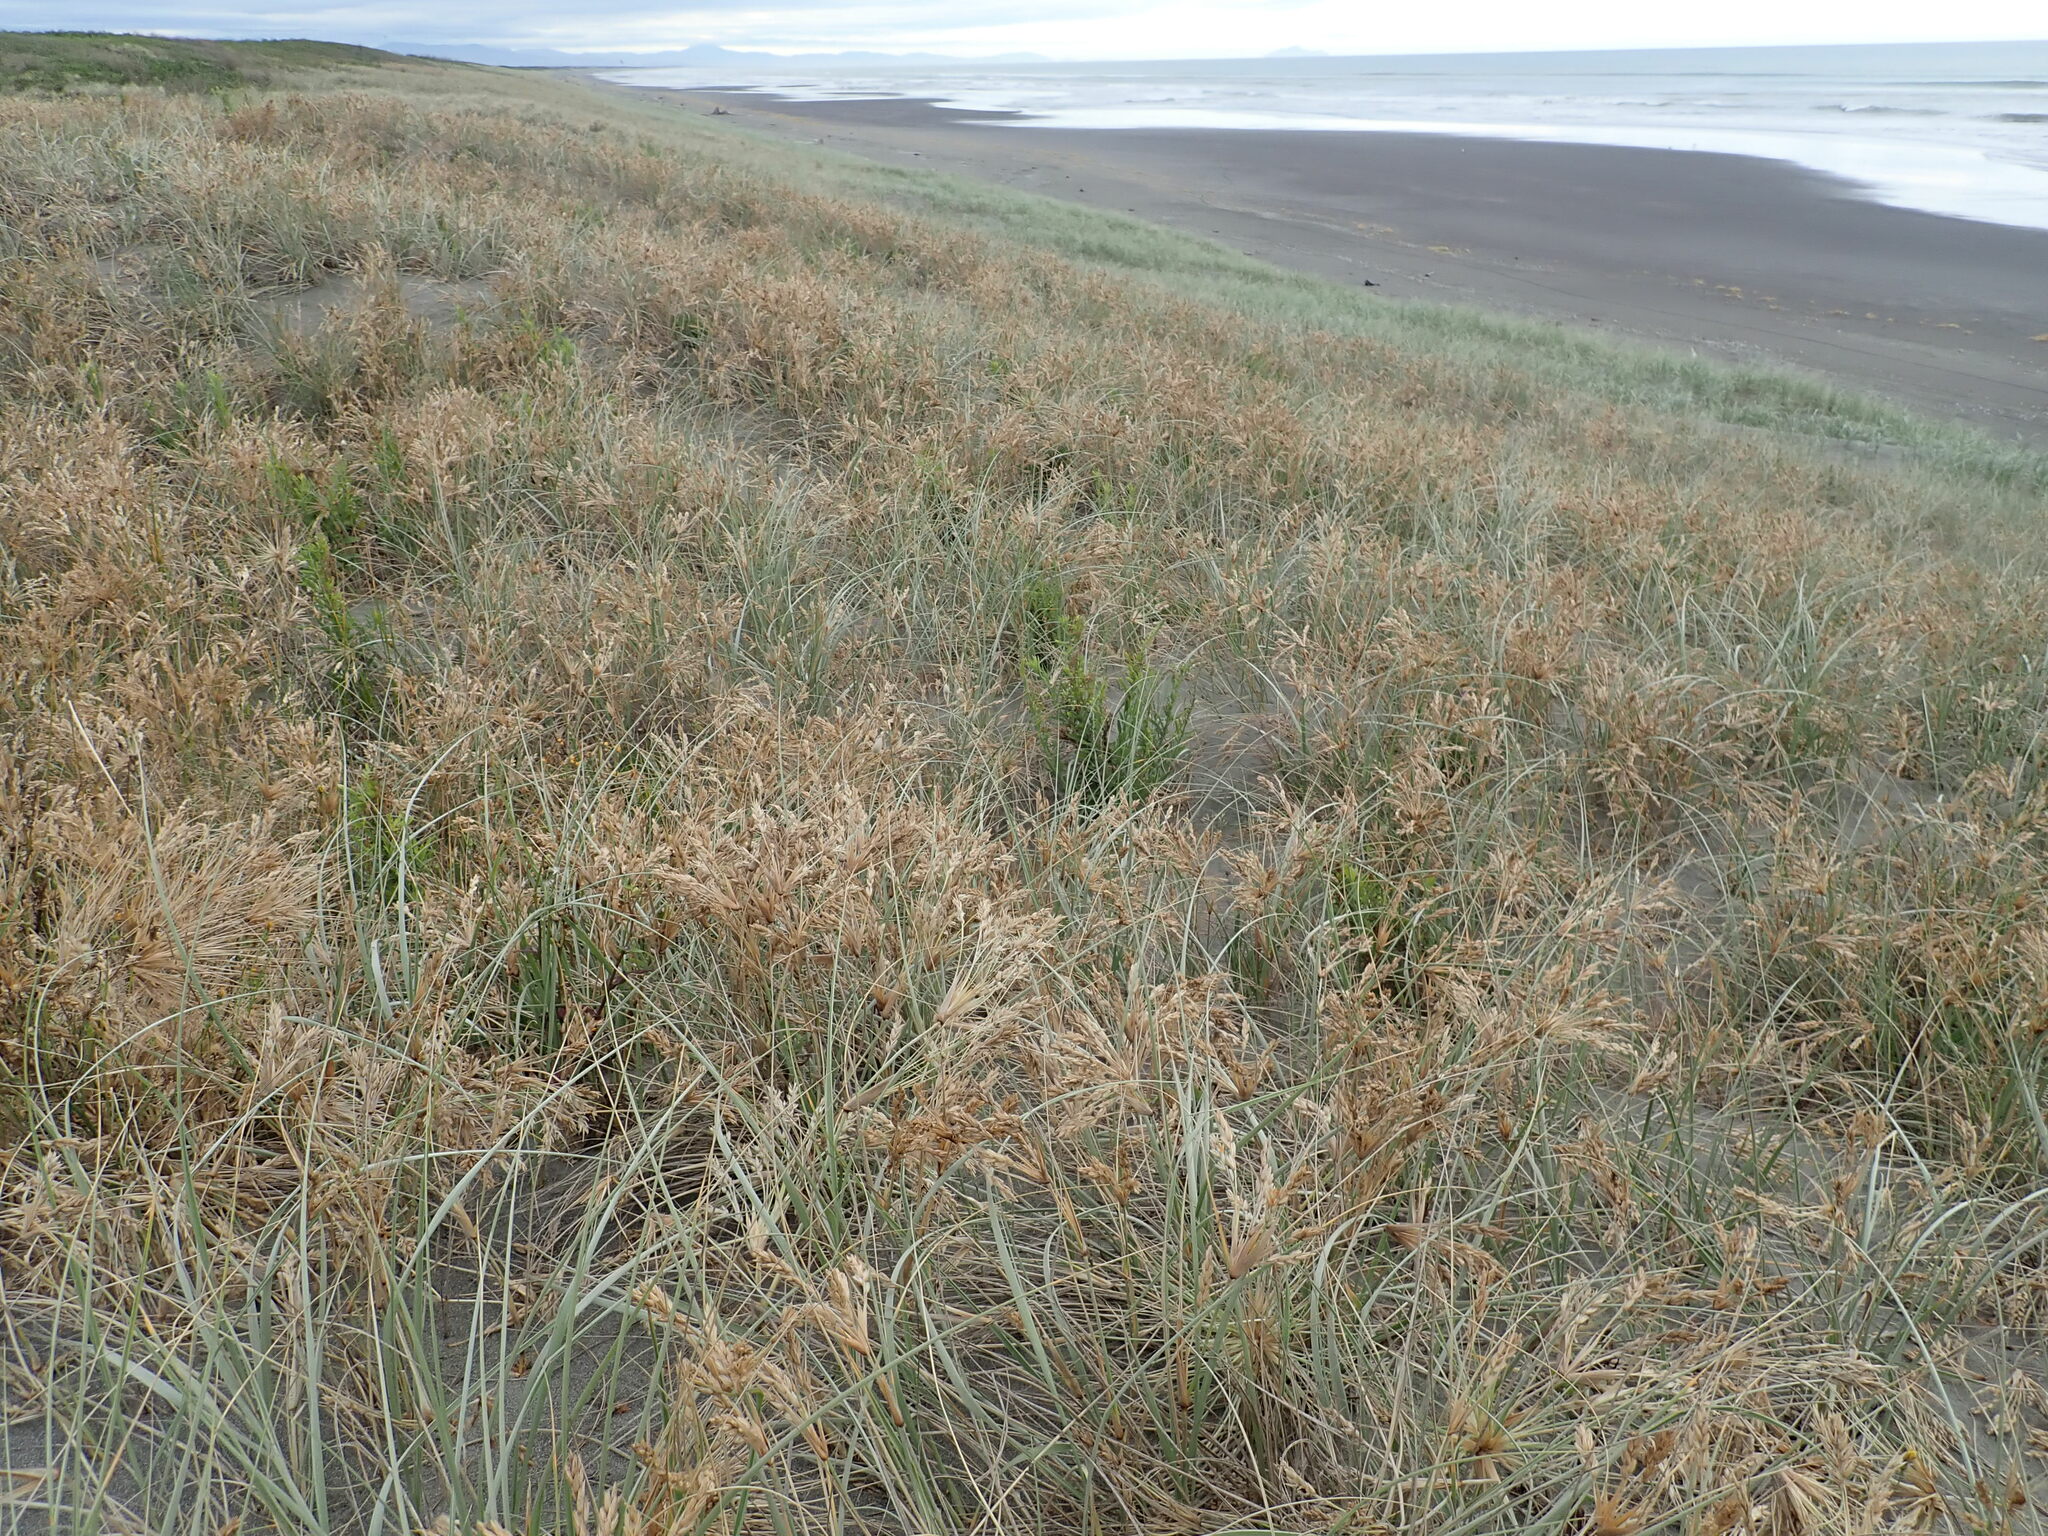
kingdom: Plantae
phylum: Tracheophyta
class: Liliopsida
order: Poales
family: Poaceae
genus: Spinifex
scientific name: Spinifex sericeus
